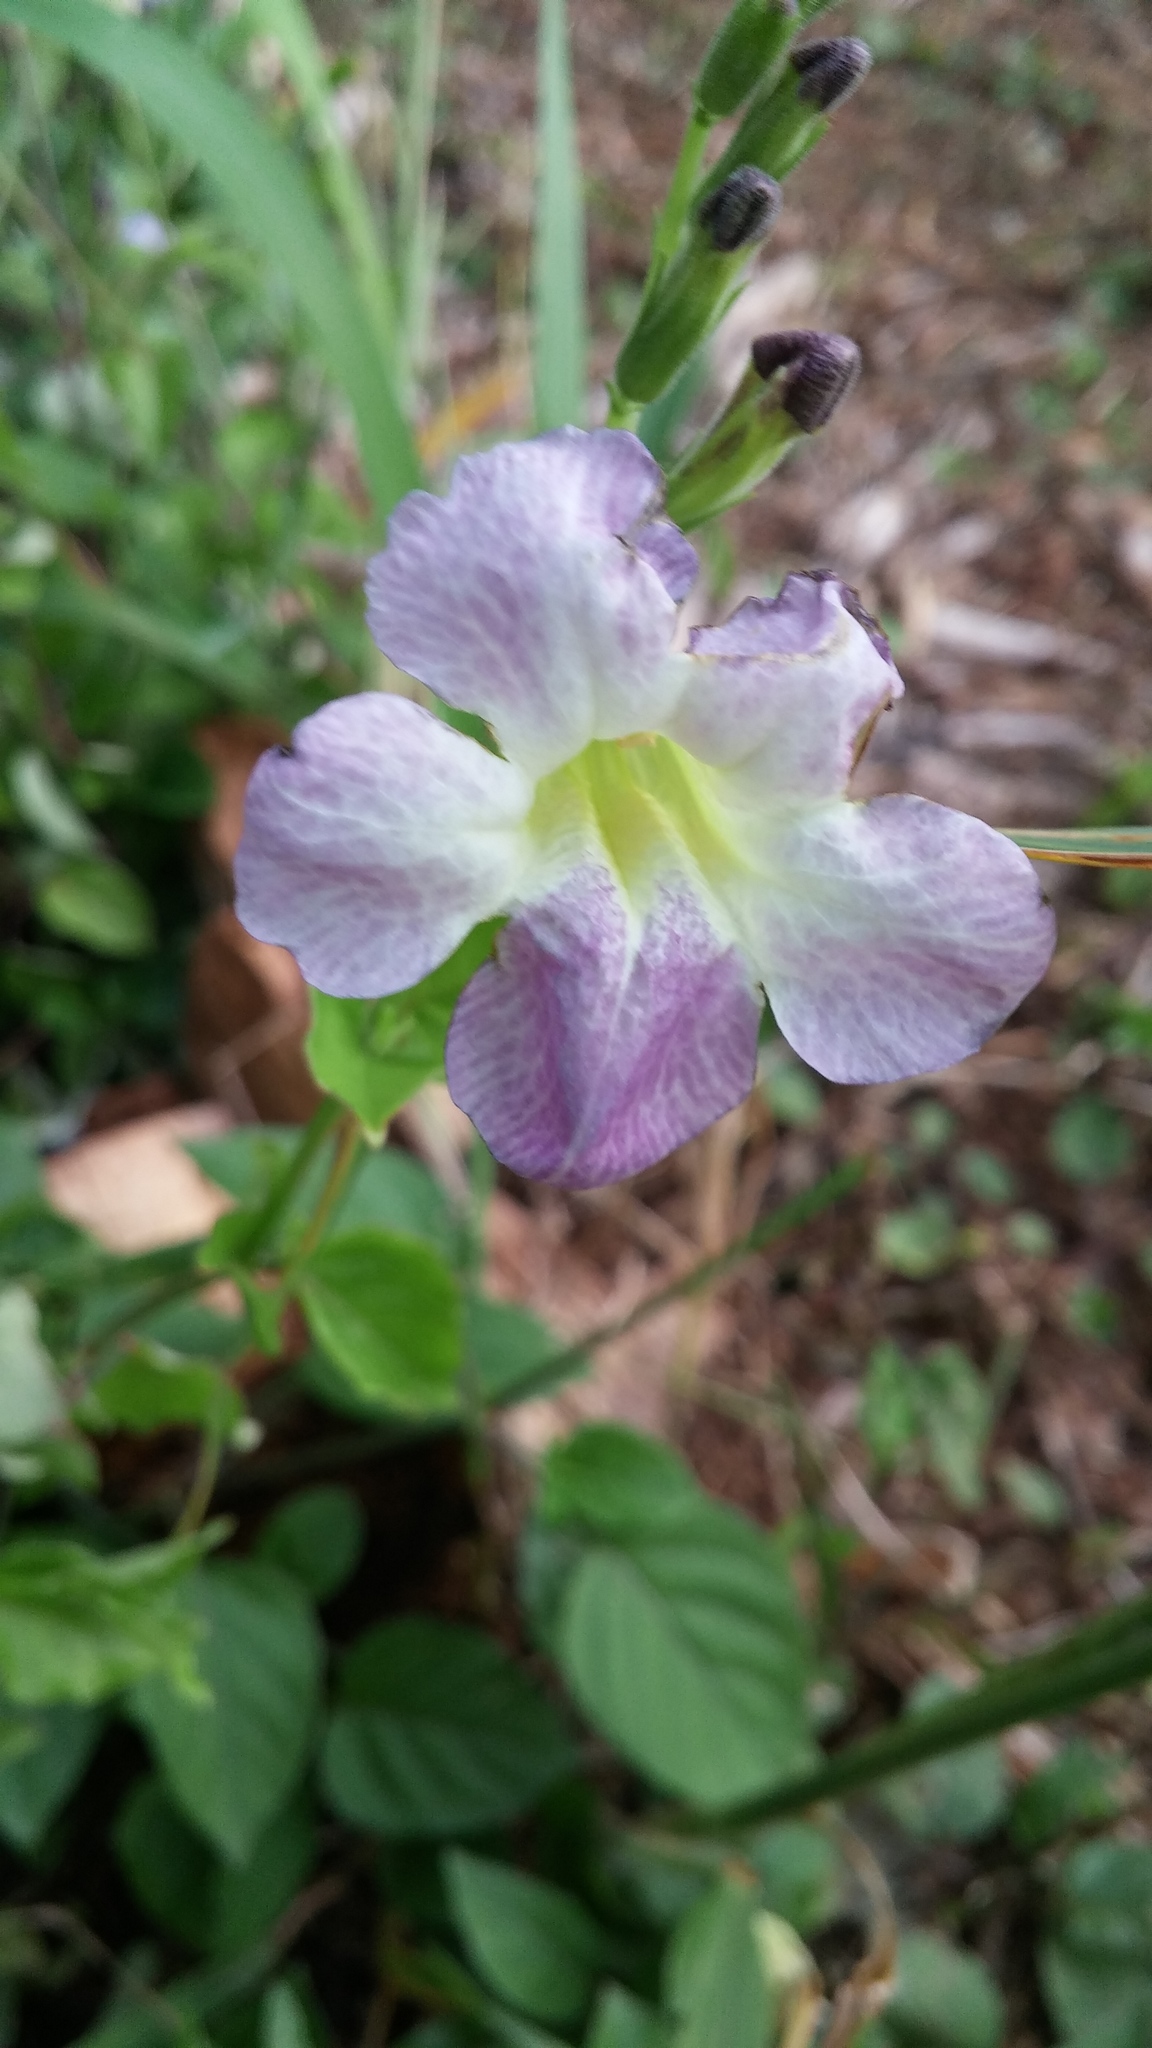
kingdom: Plantae
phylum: Tracheophyta
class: Magnoliopsida
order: Lamiales
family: Acanthaceae
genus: Asystasia
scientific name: Asystasia gangetica
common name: Chinese violet
